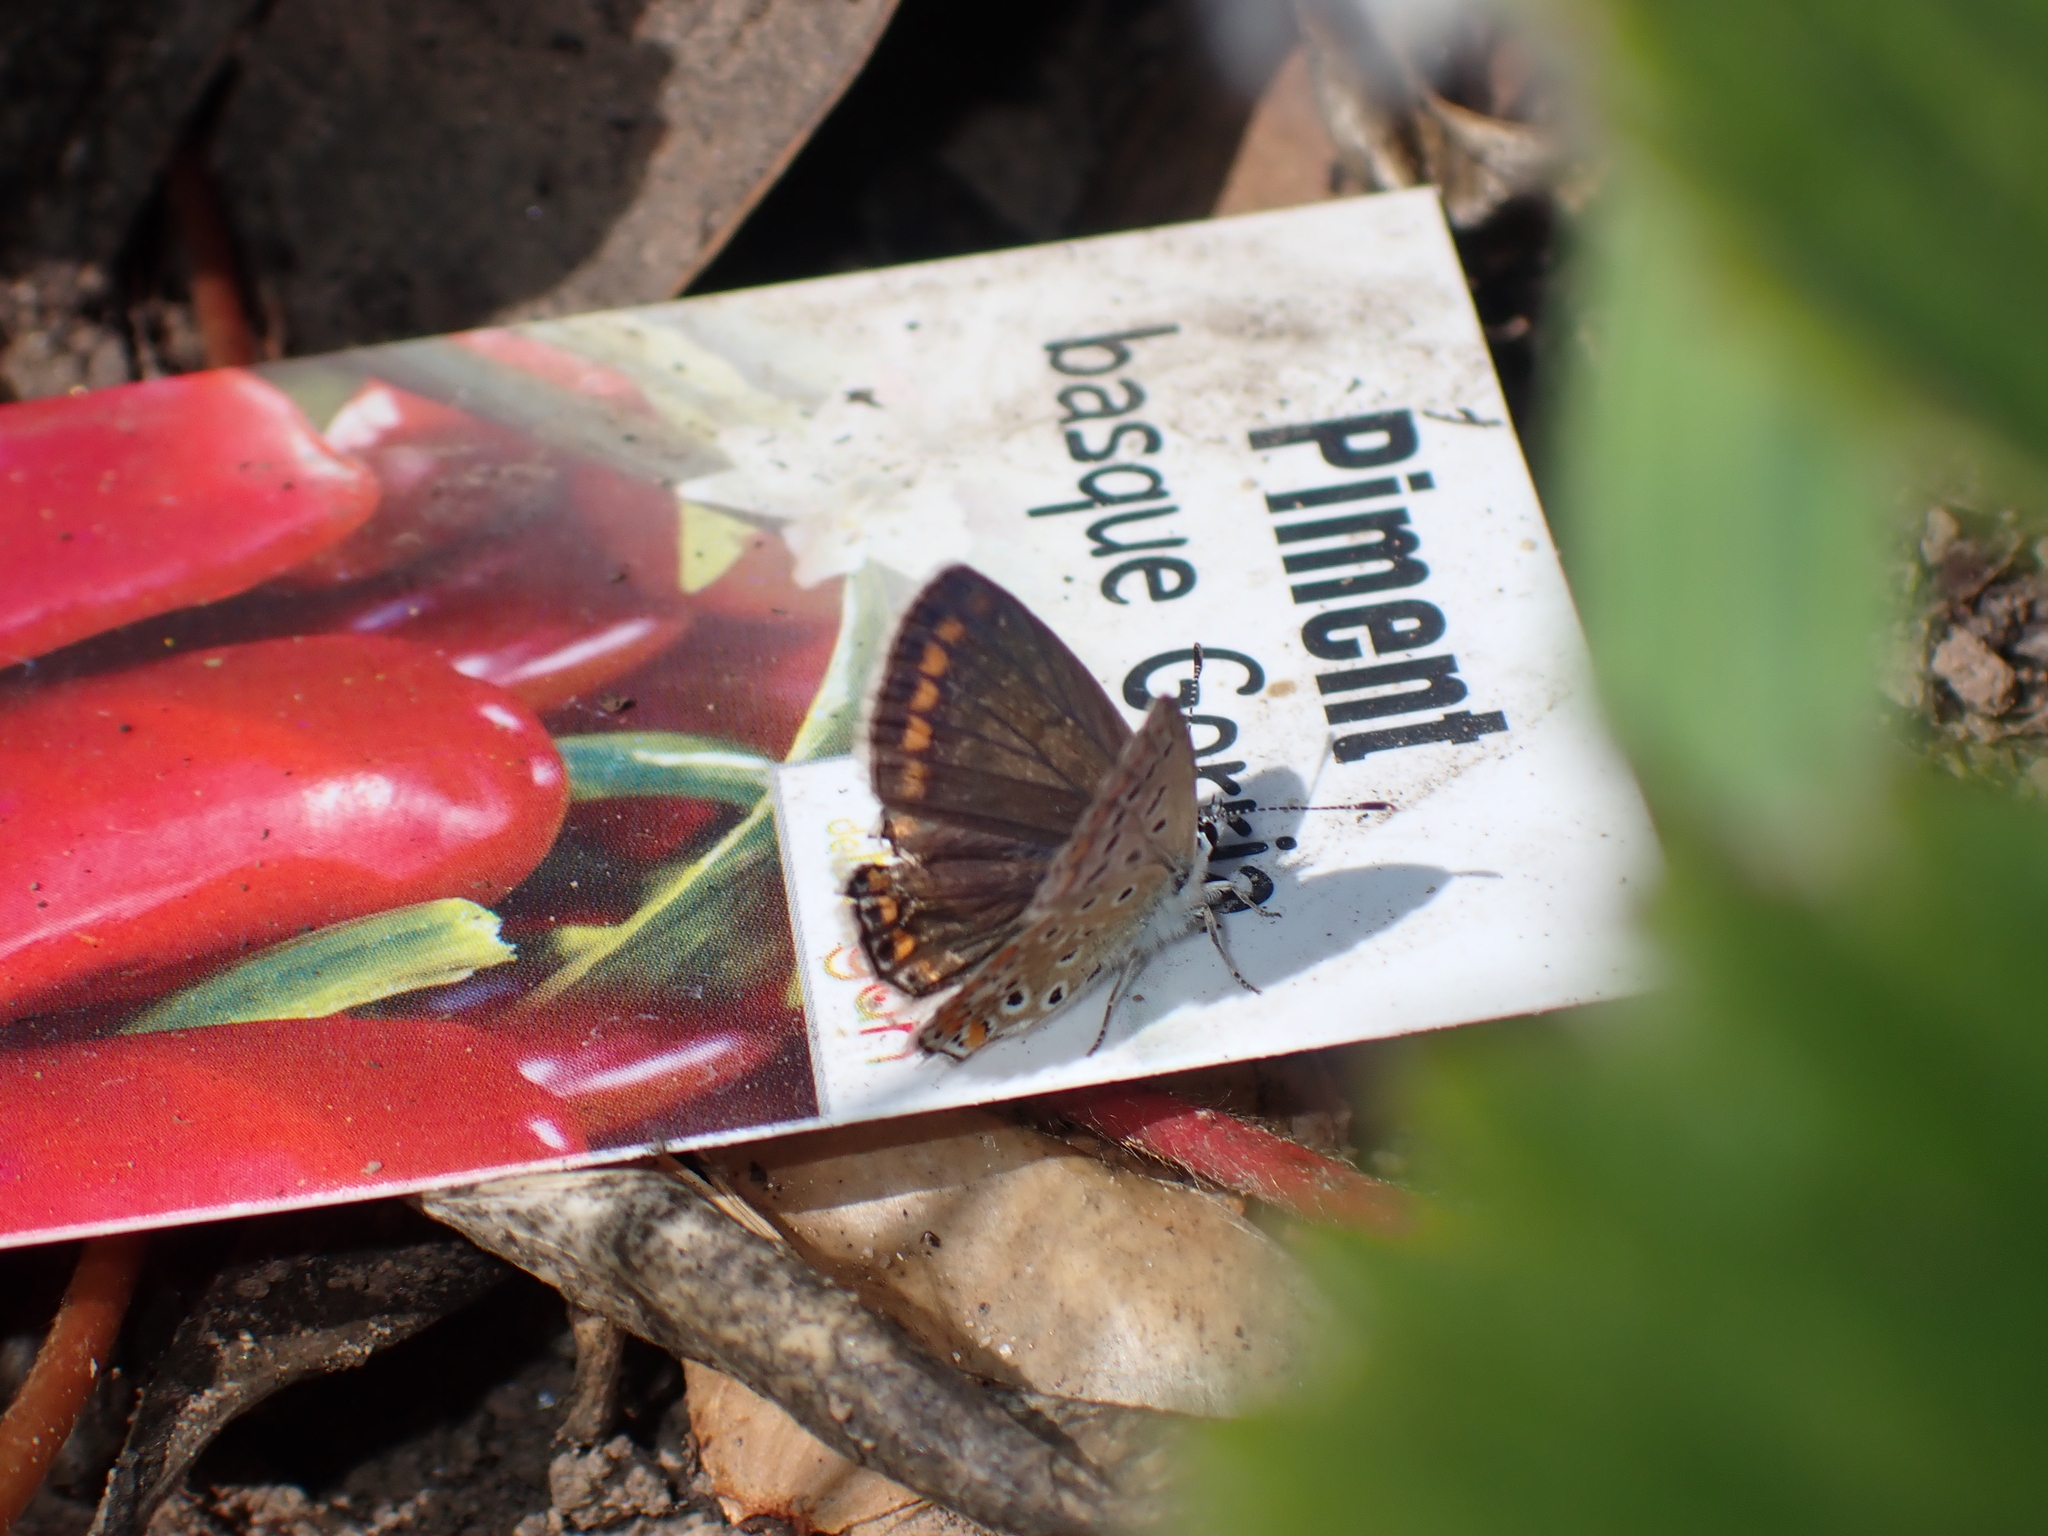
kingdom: Animalia
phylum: Arthropoda
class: Insecta
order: Lepidoptera
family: Lycaenidae
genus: Polyommatus
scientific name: Polyommatus icarus
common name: Common blue
